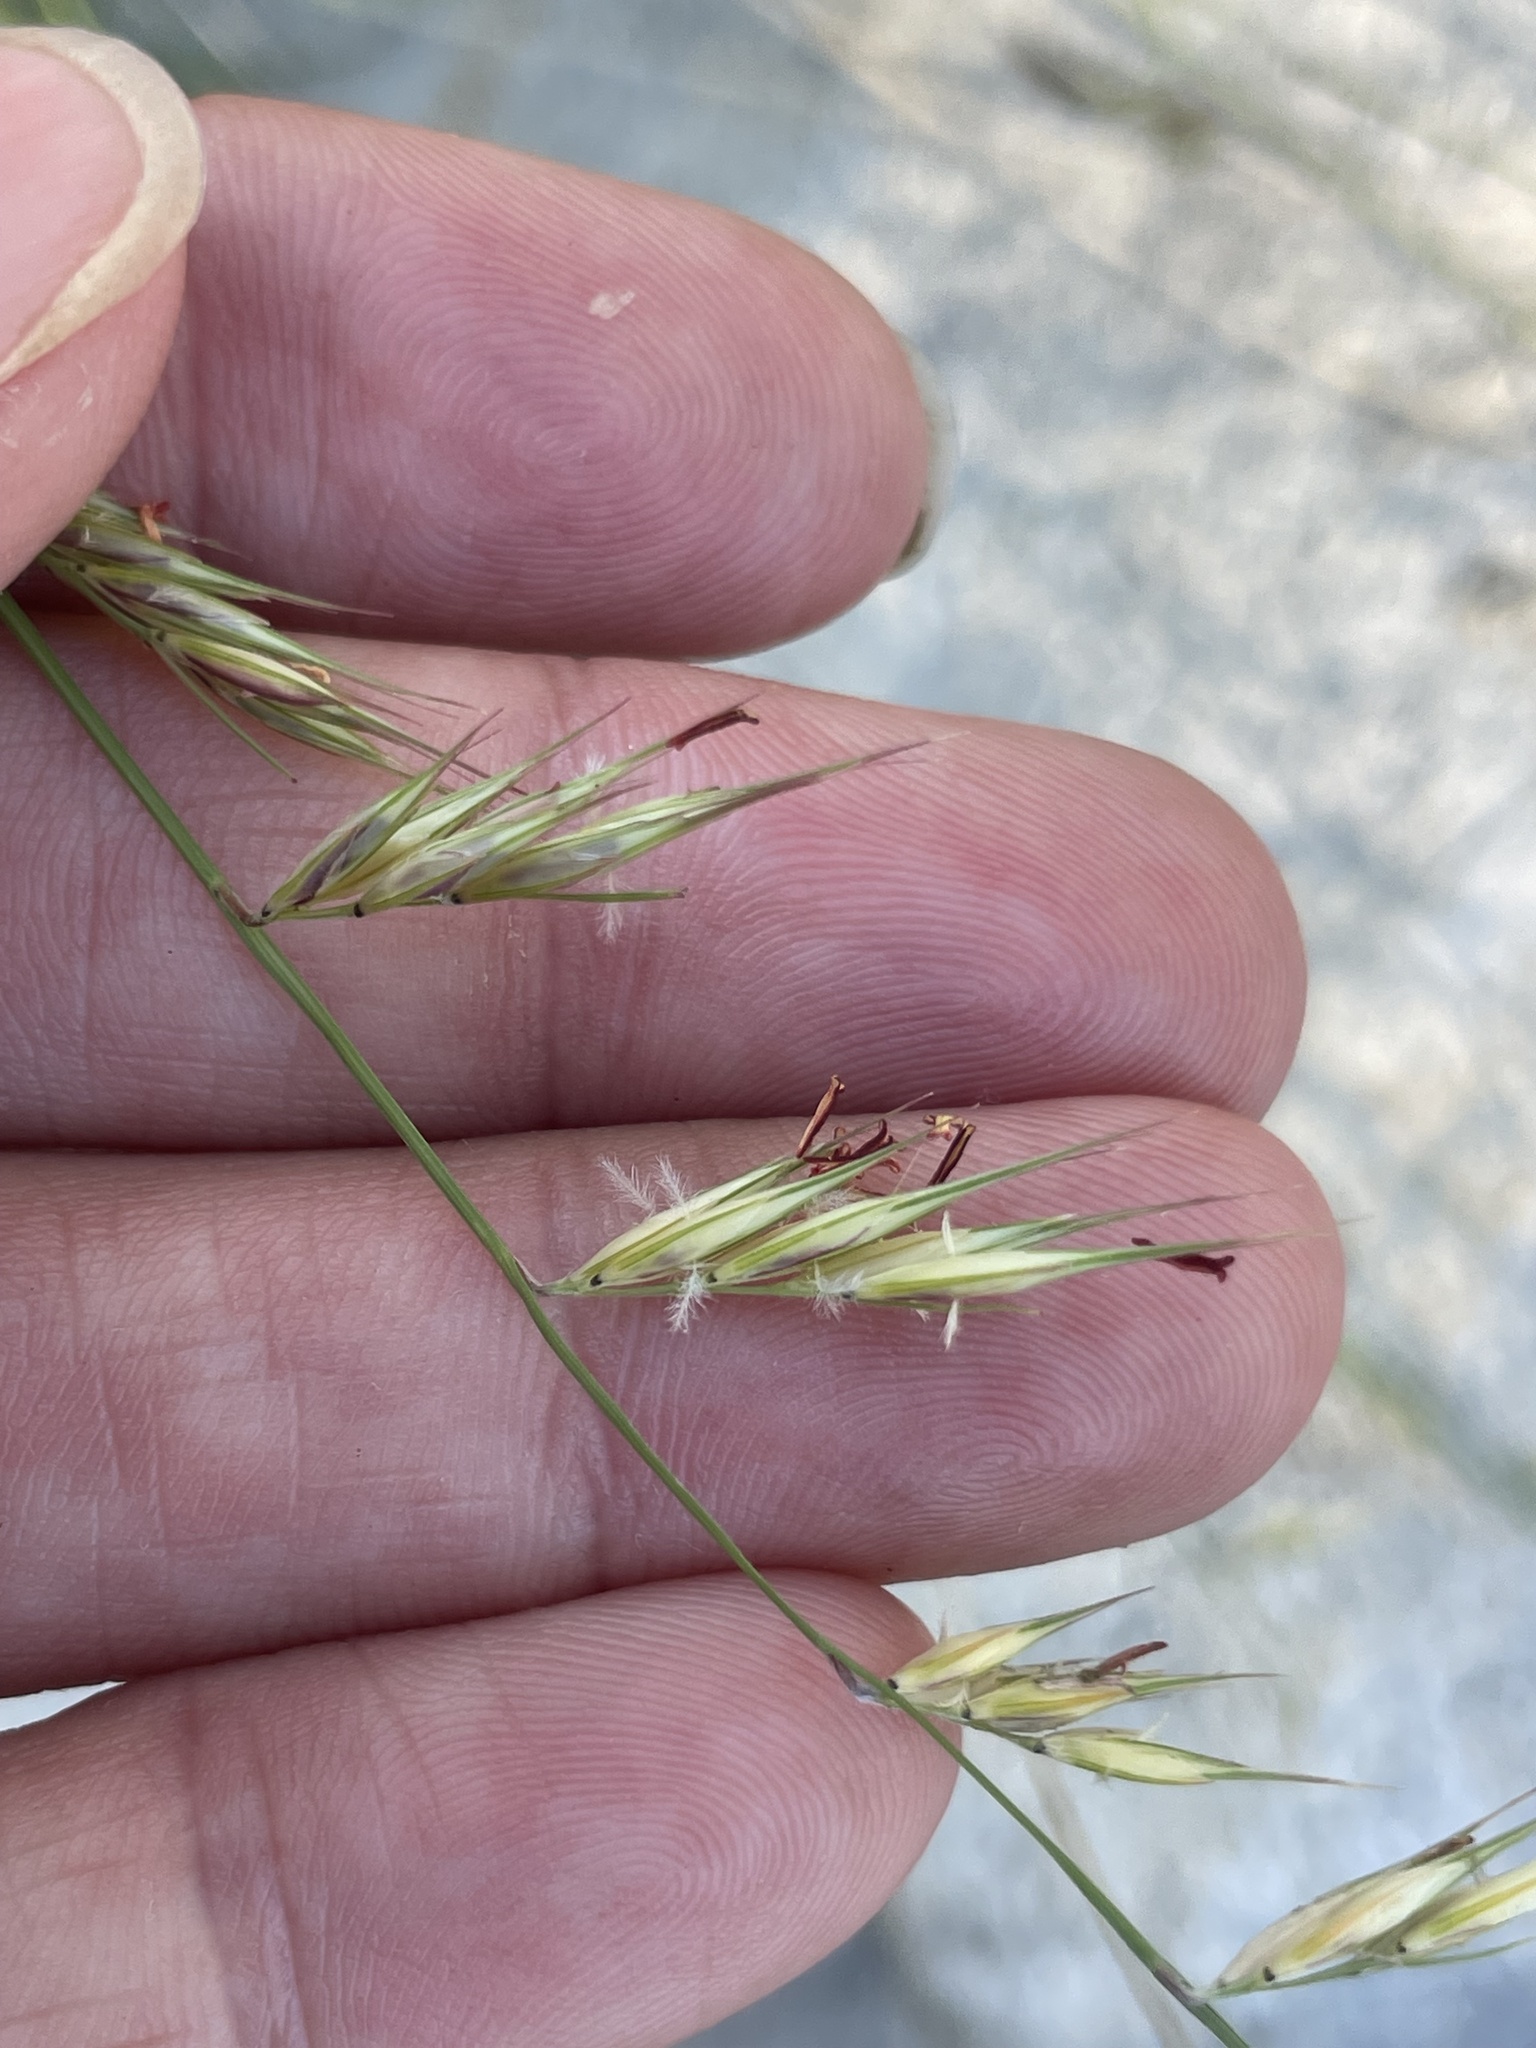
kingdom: Plantae
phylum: Tracheophyta
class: Liliopsida
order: Poales
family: Poaceae
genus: Bouteloua
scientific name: Bouteloua repens
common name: Slender grama
